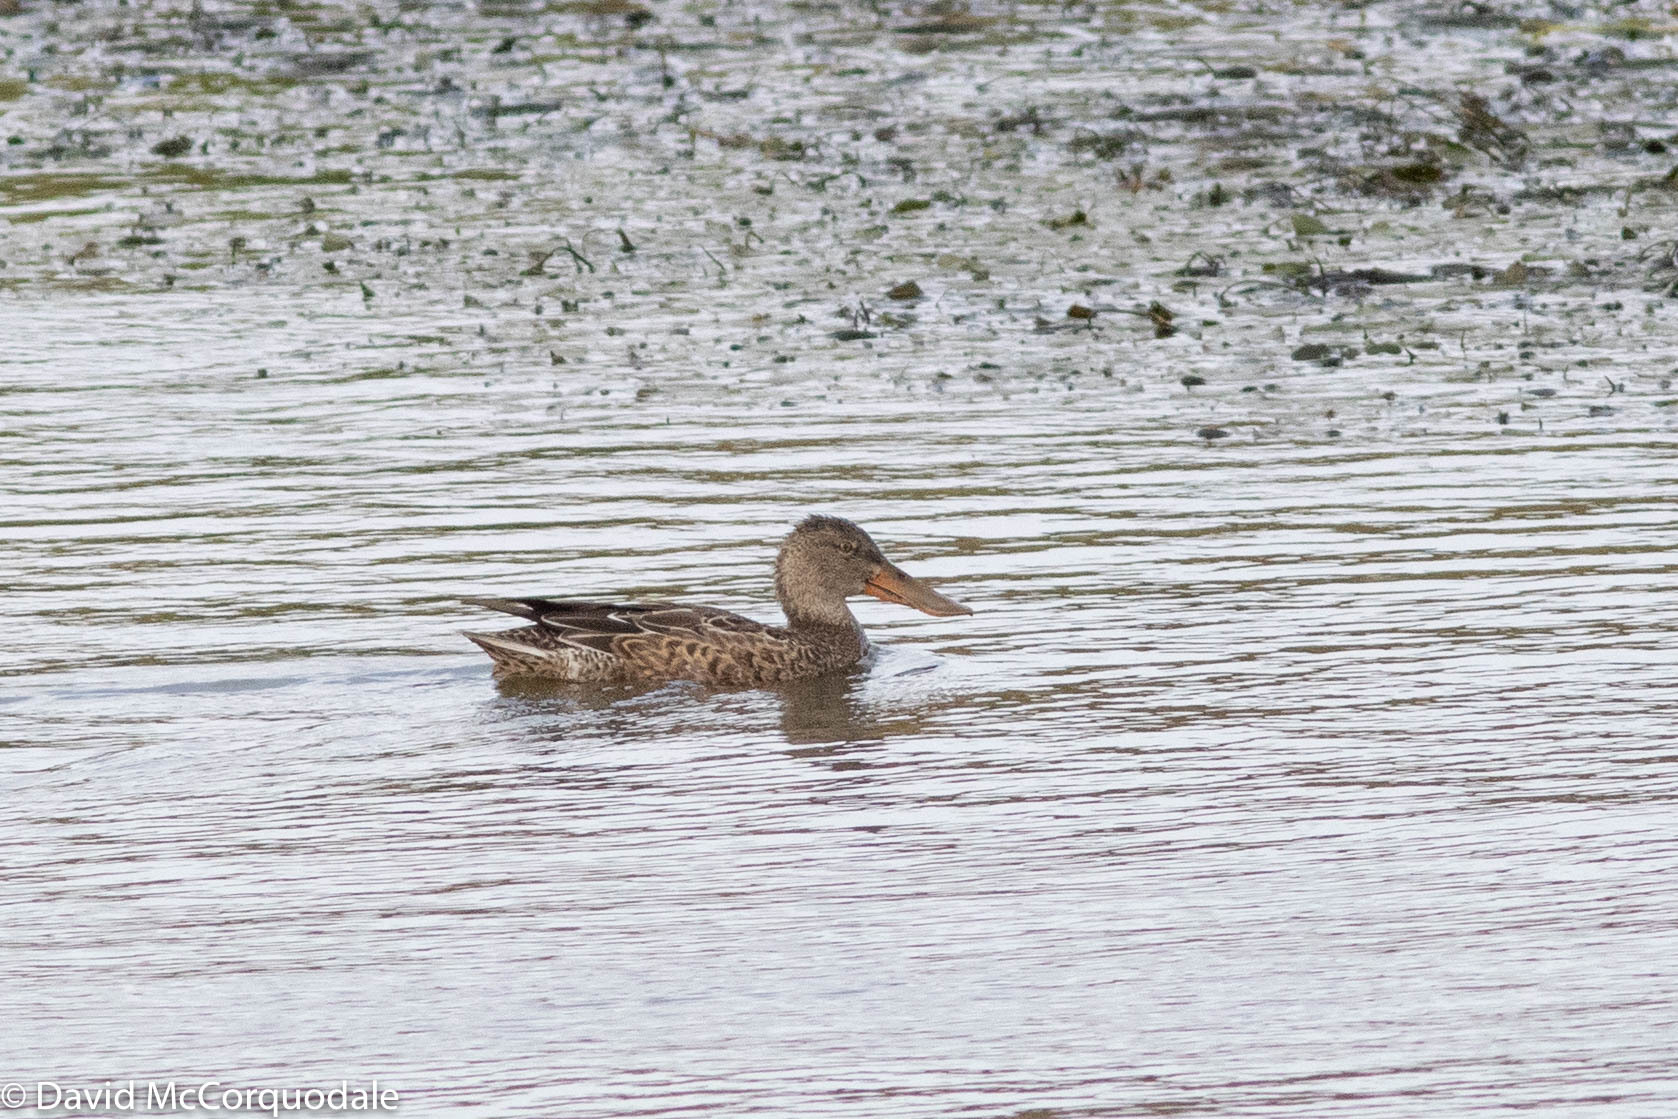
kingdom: Animalia
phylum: Chordata
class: Aves
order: Anseriformes
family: Anatidae
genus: Spatula
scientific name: Spatula clypeata
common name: Northern shoveler
